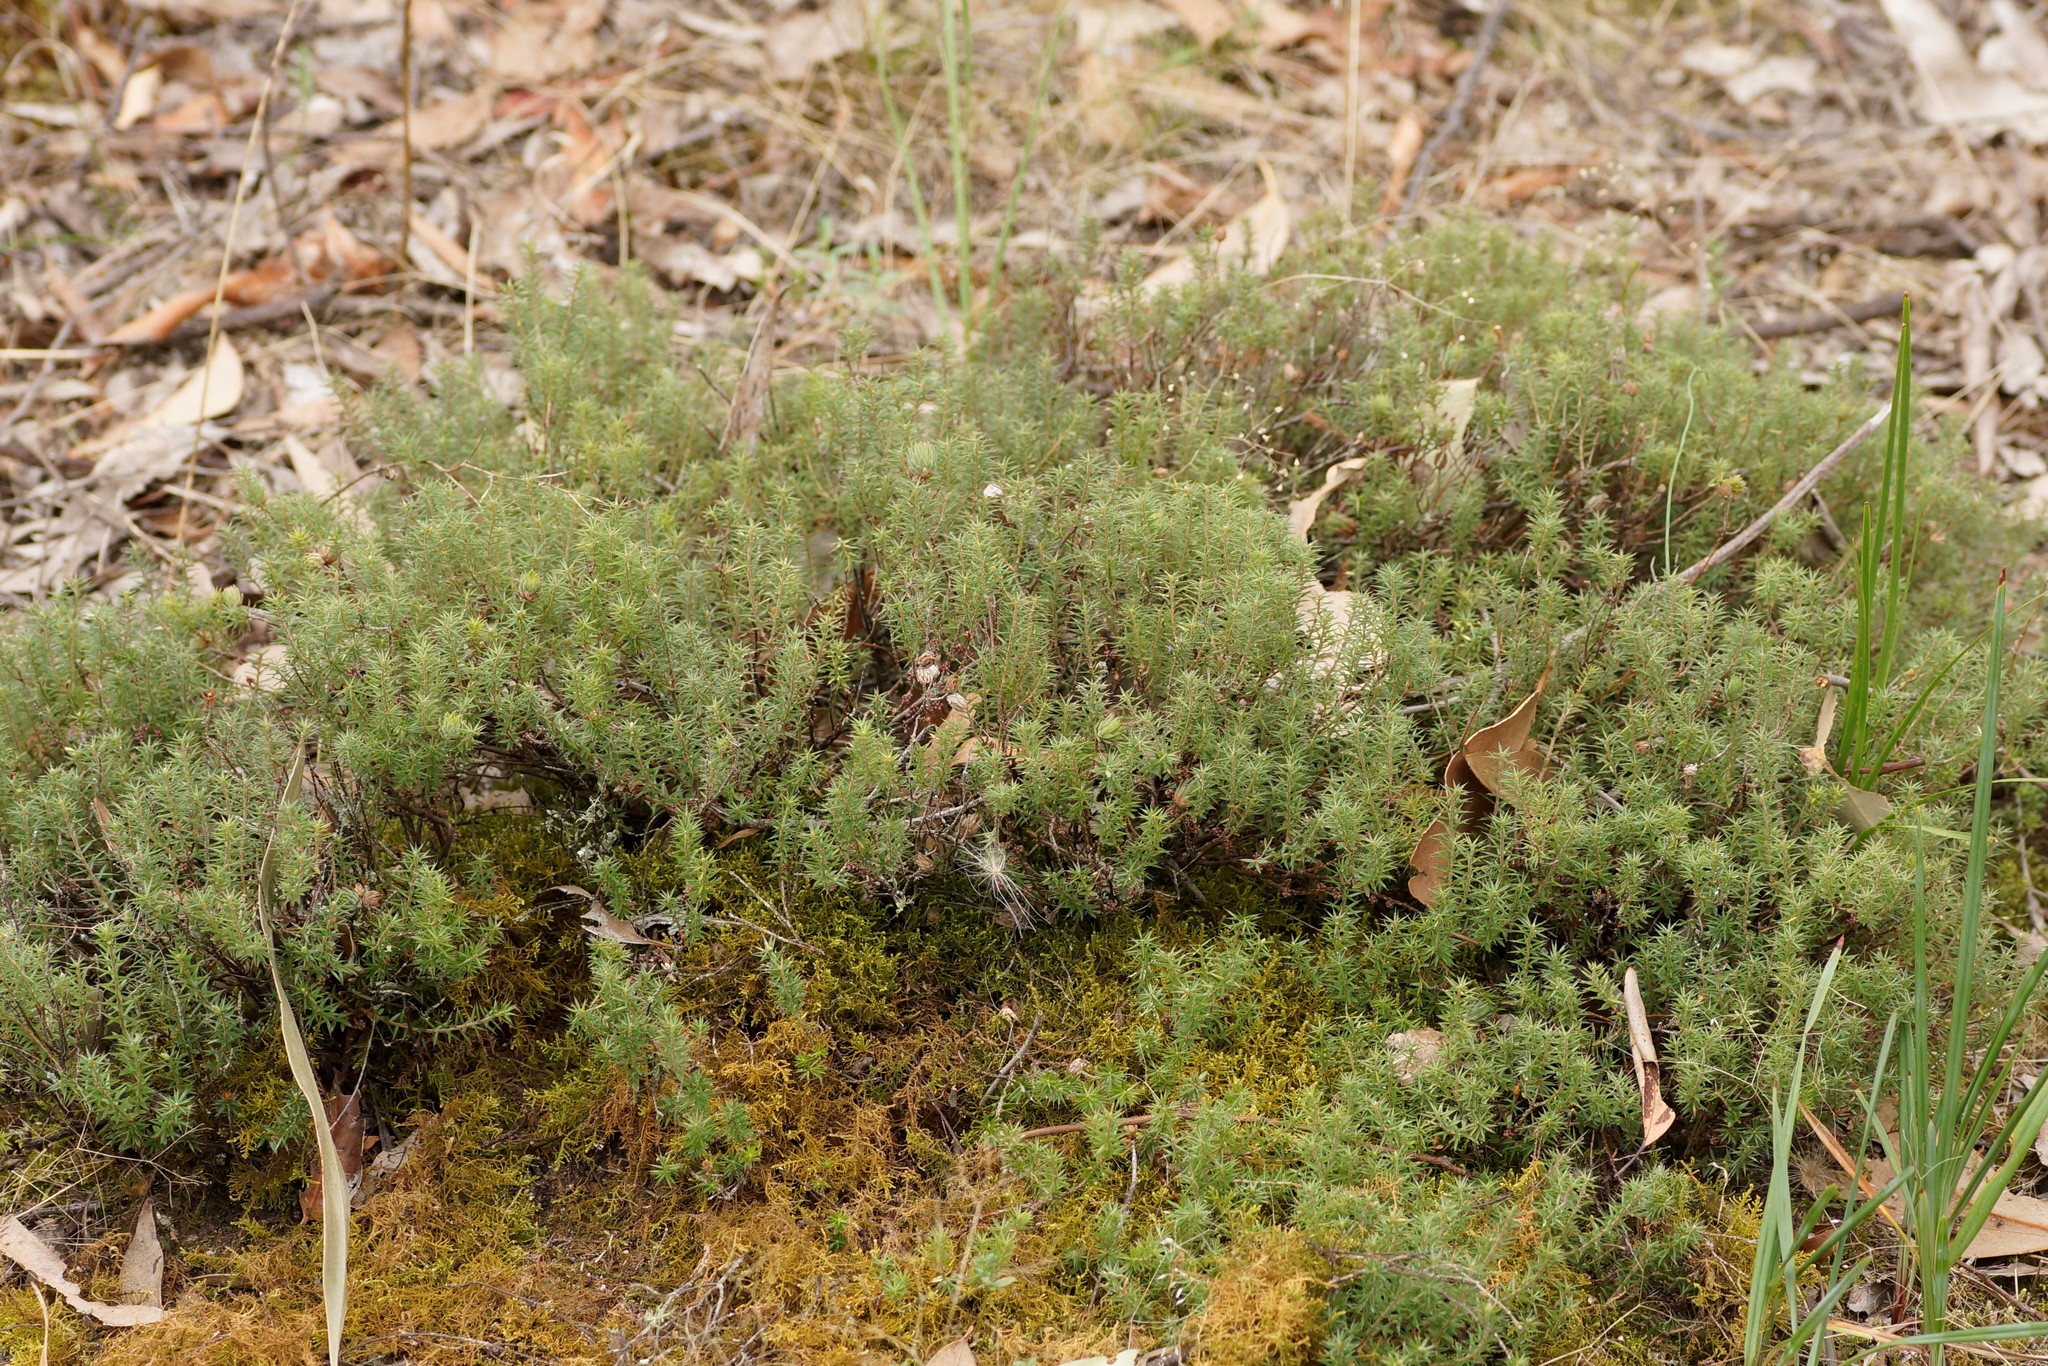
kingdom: Plantae
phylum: Tracheophyta
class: Magnoliopsida
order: Ericales
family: Ericaceae
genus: Styphelia
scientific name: Styphelia humifusa
